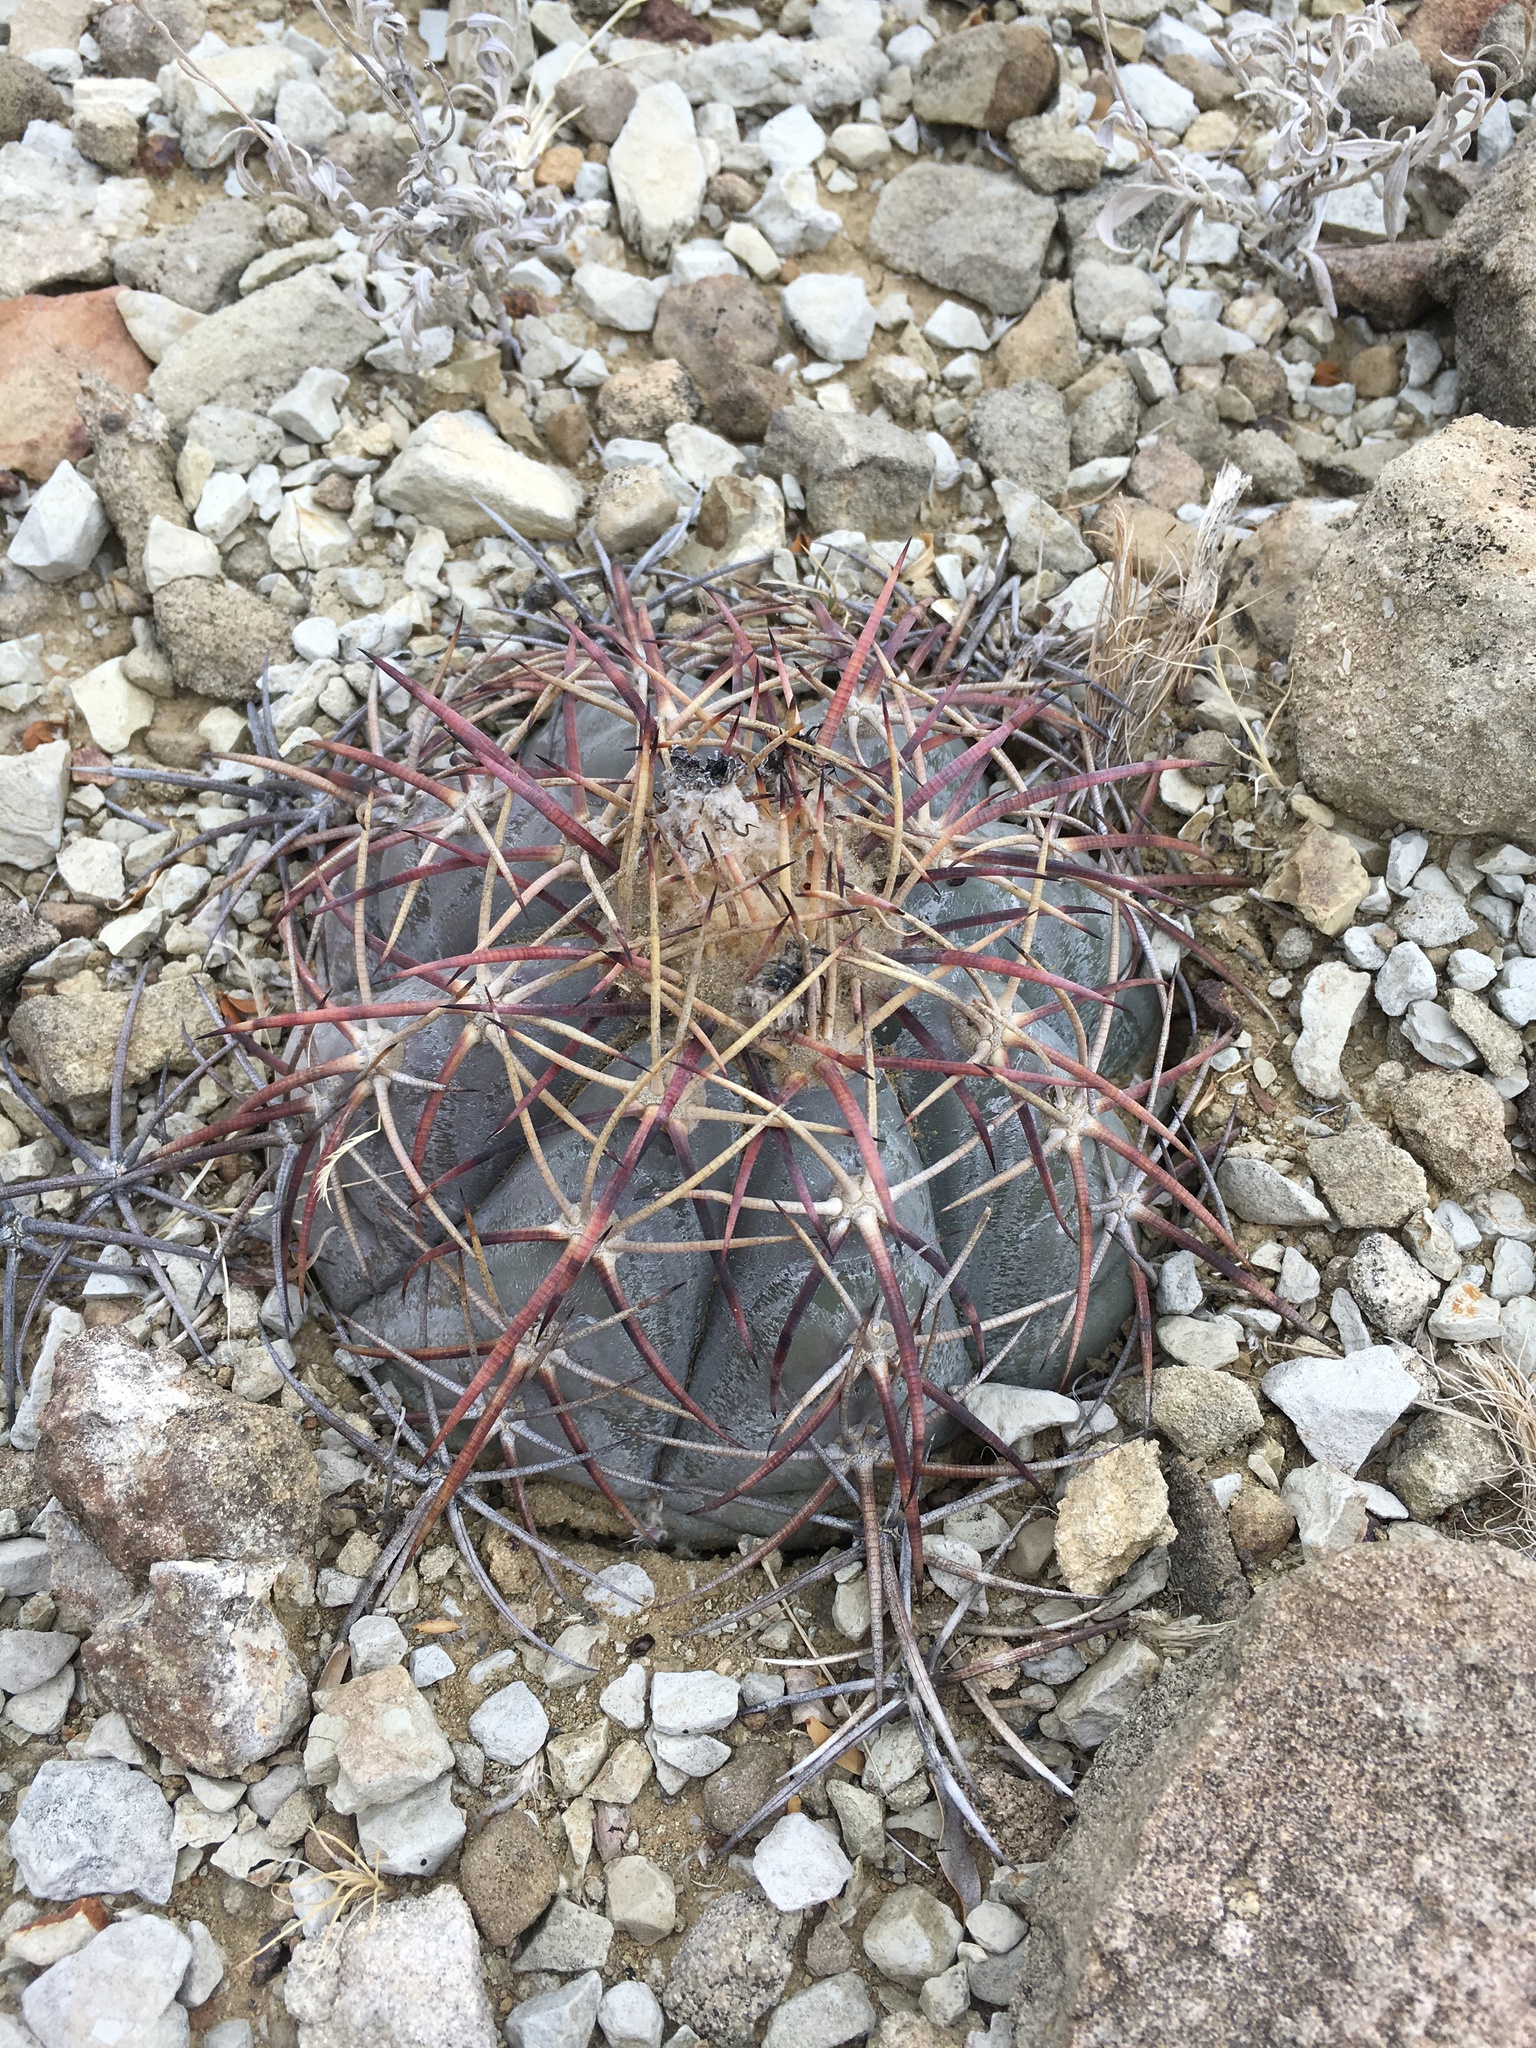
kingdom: Plantae
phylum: Tracheophyta
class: Magnoliopsida
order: Caryophyllales
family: Cactaceae
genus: Echinocactus
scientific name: Echinocactus horizonthalonius
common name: Devilshead
